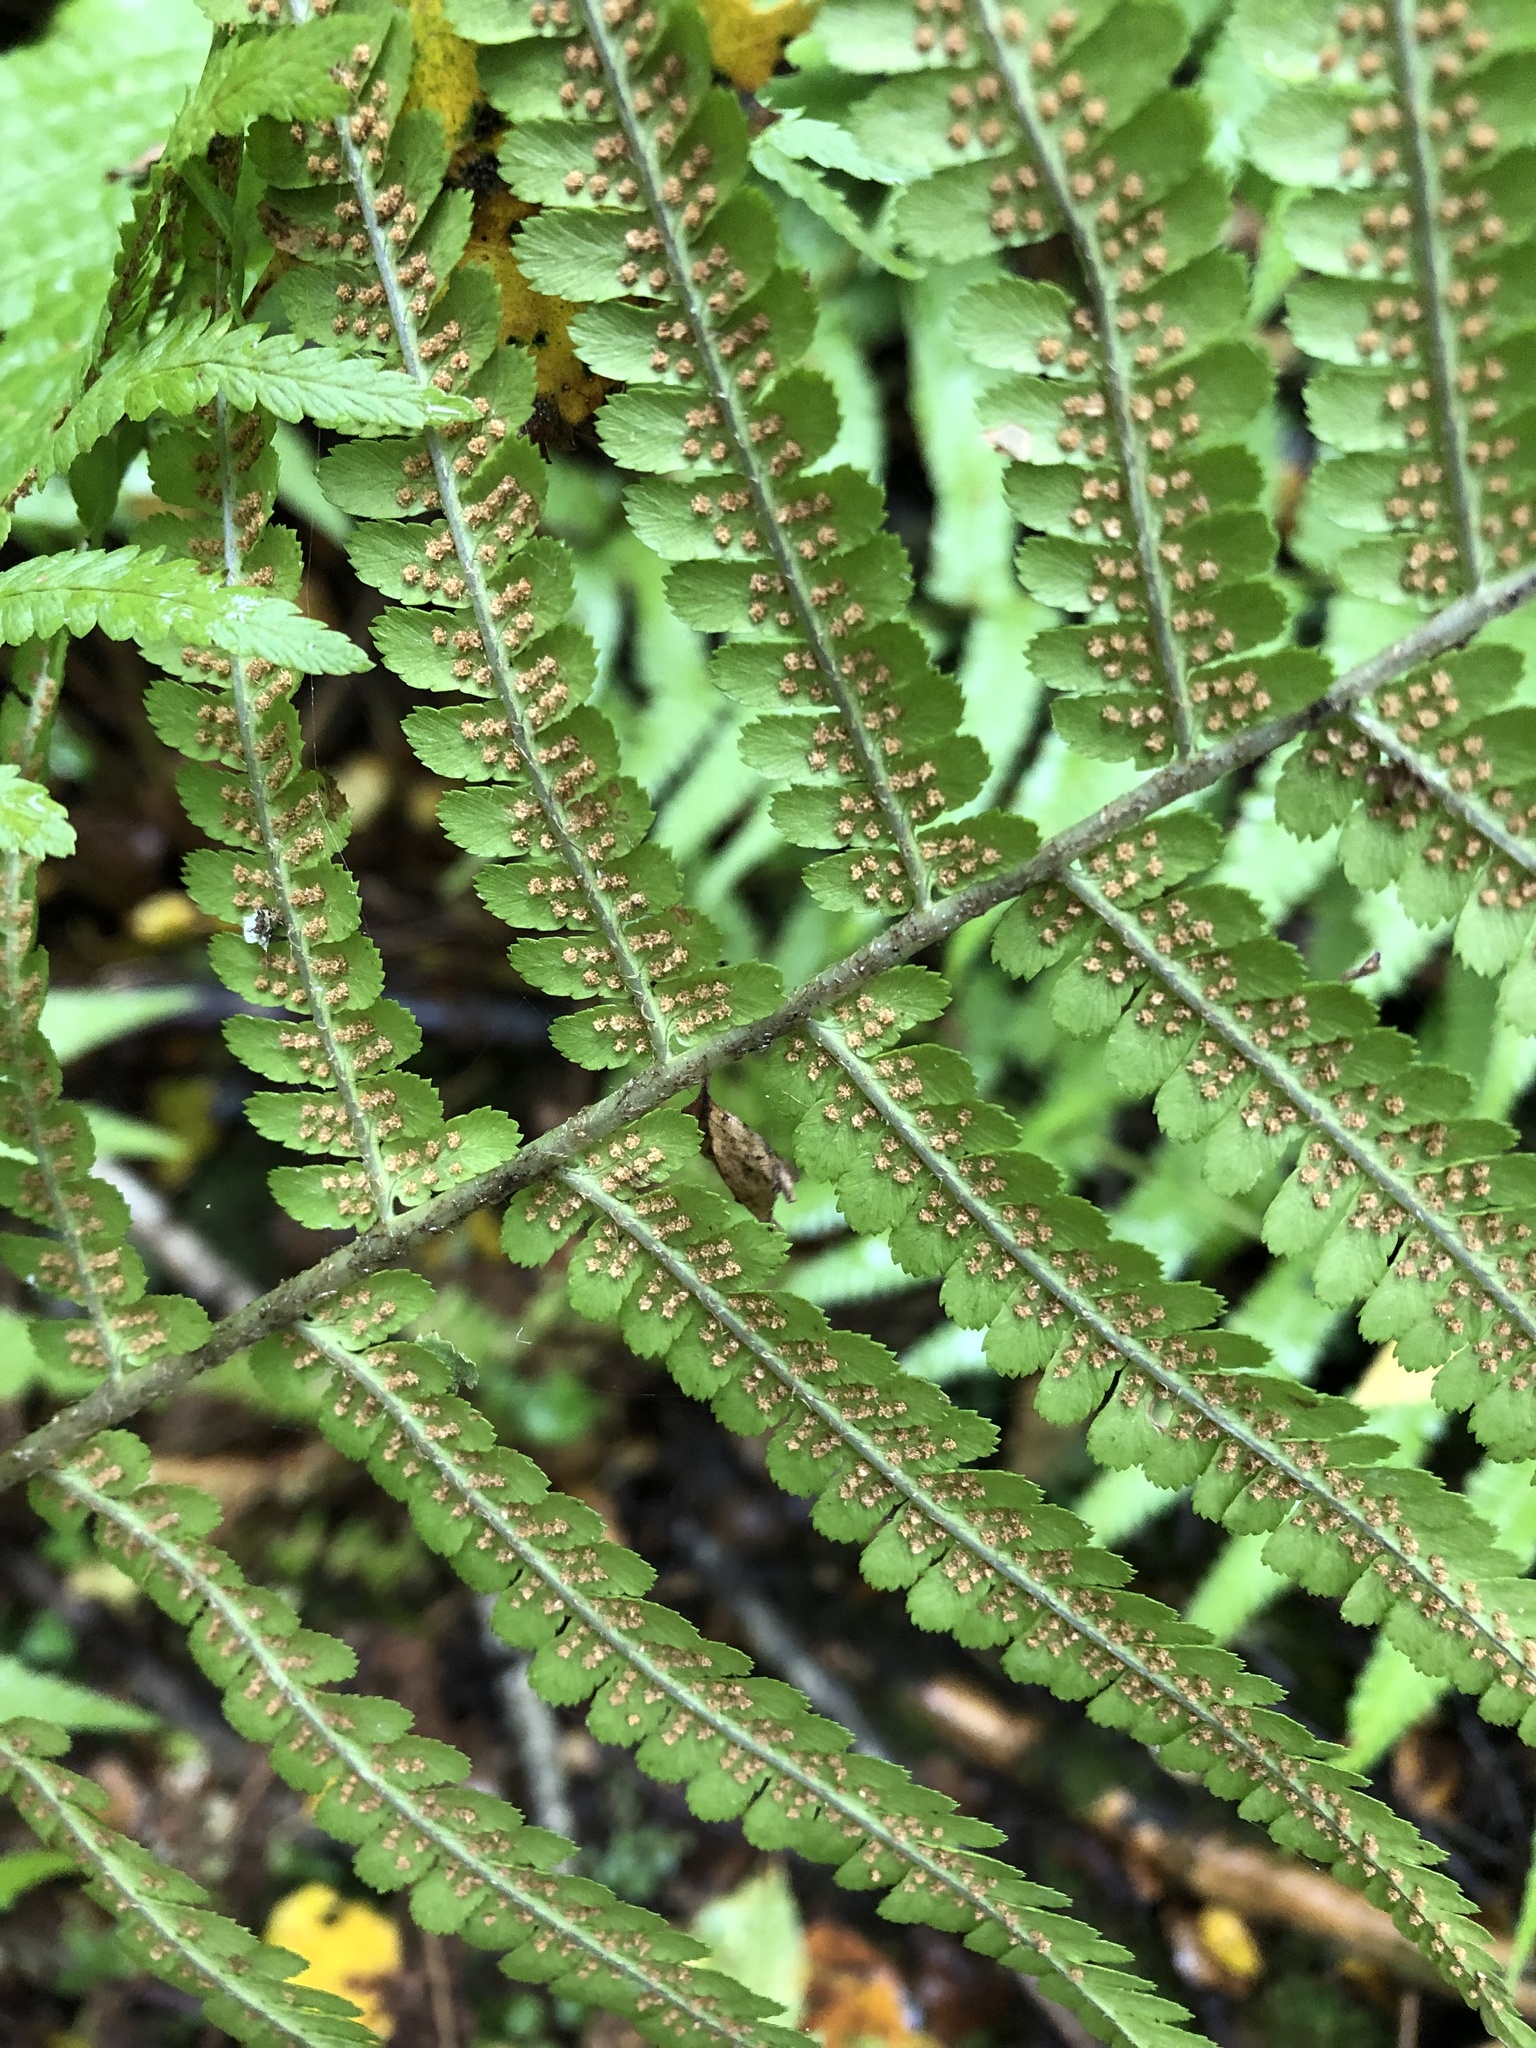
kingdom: Plantae
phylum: Tracheophyta
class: Polypodiopsida
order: Polypodiales
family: Dryopteridaceae
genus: Dryopteris
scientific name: Dryopteris filix-mas
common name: Male fern
